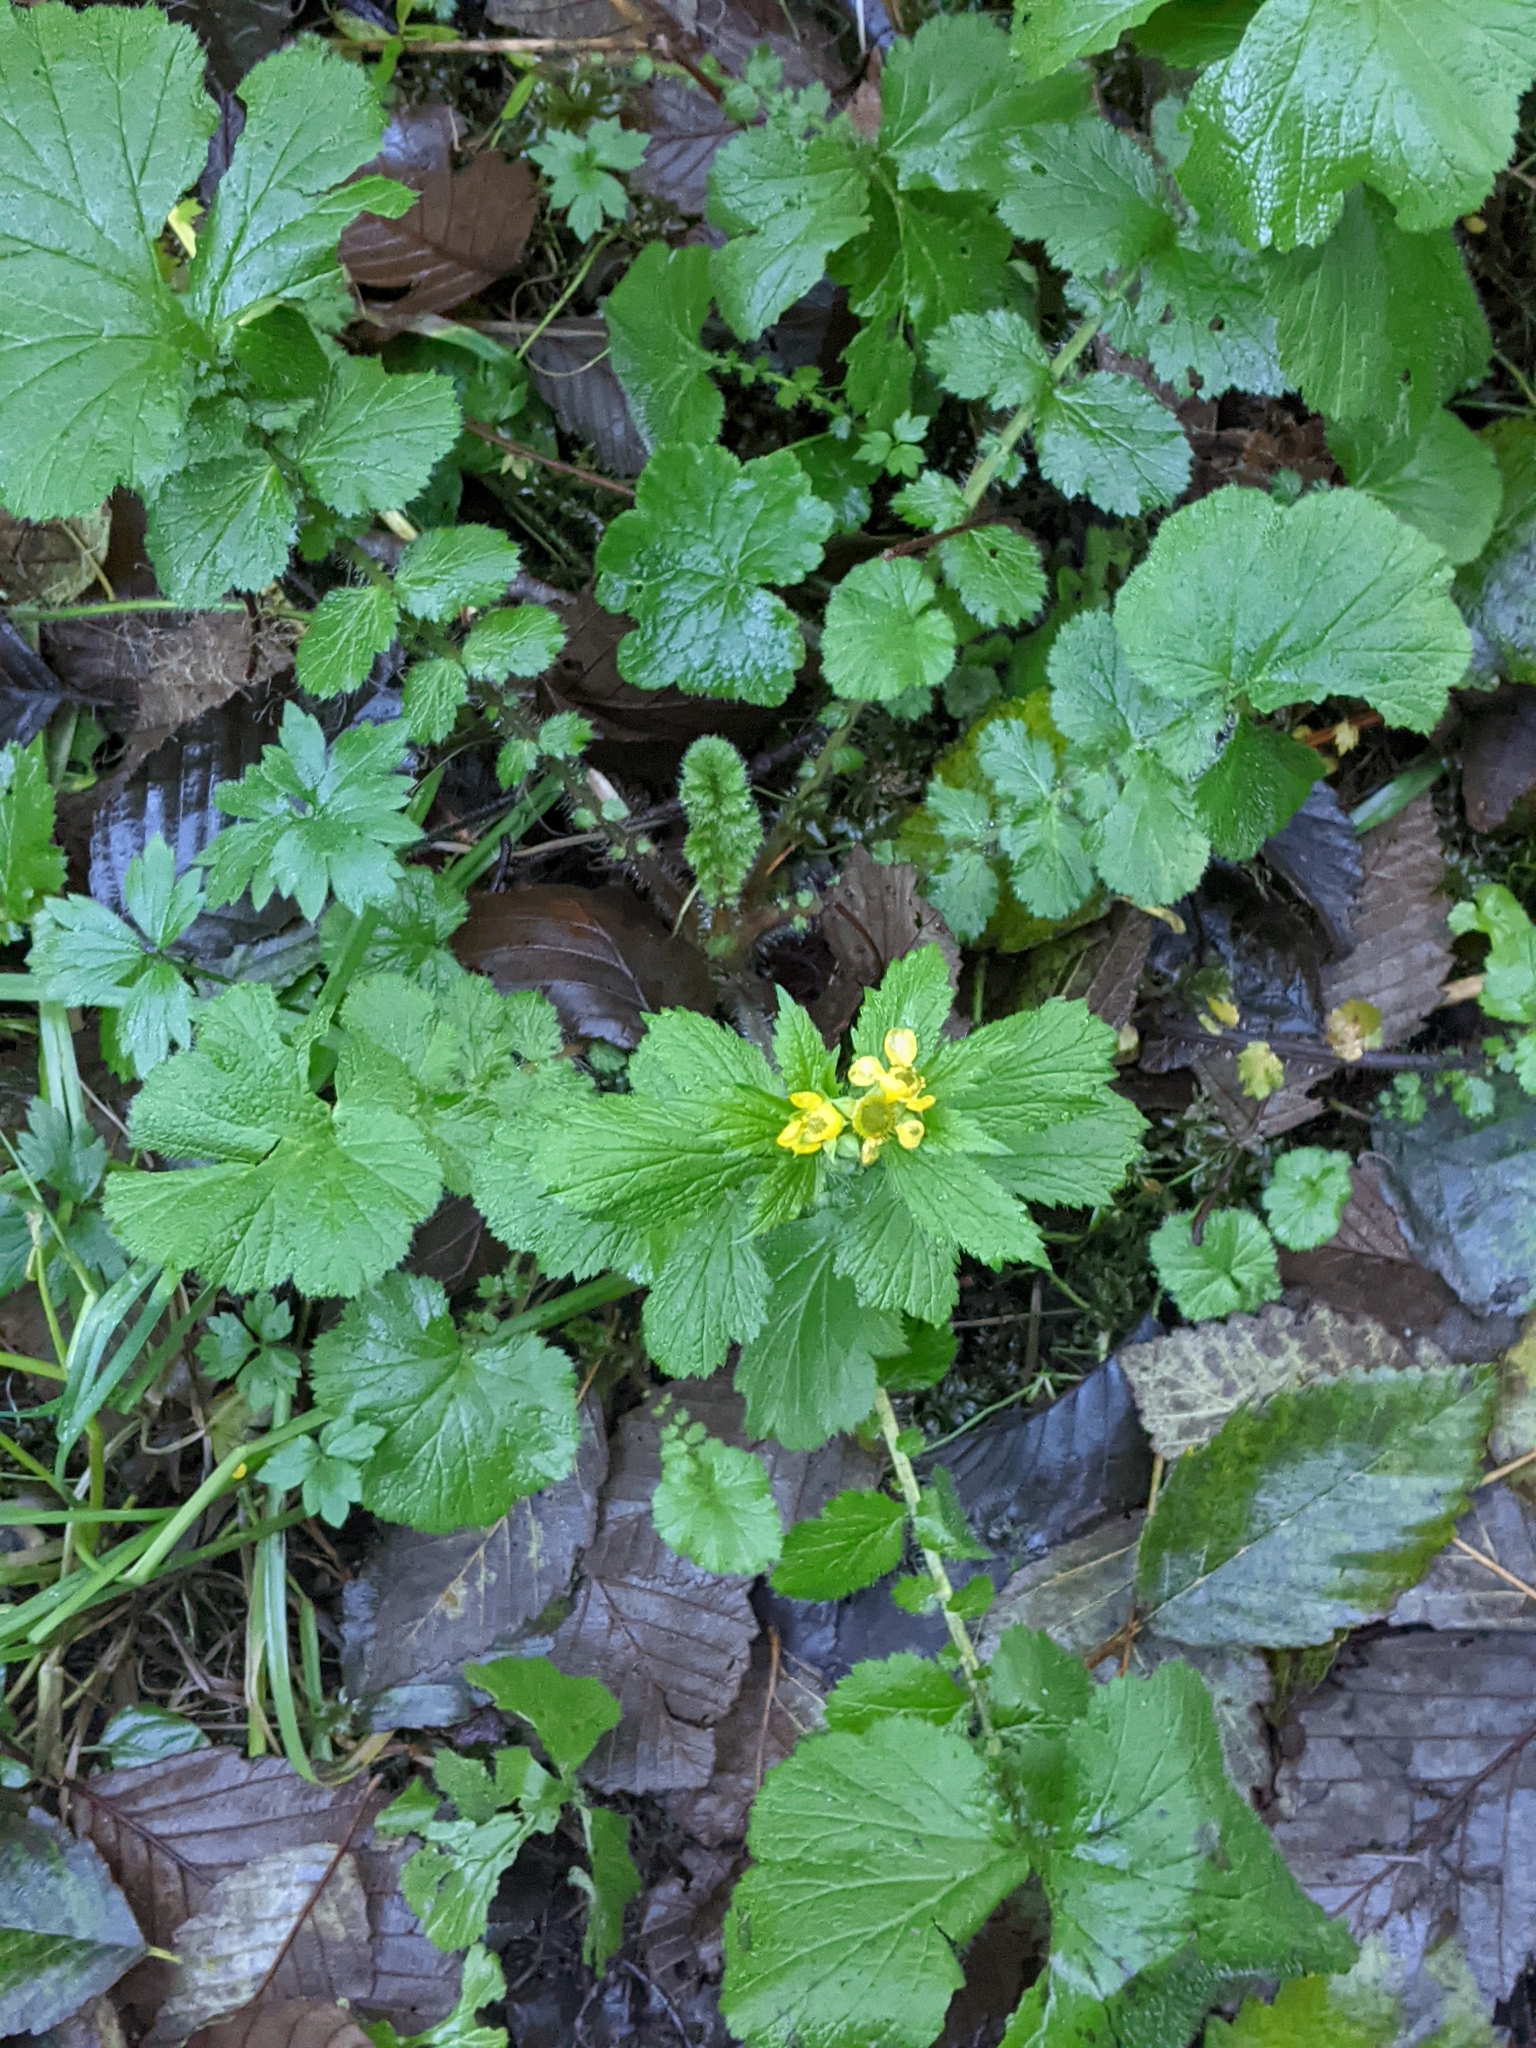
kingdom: Plantae
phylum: Tracheophyta
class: Magnoliopsida
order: Rosales
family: Rosaceae
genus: Geum
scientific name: Geum macrophyllum
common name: Large-leaved avens
